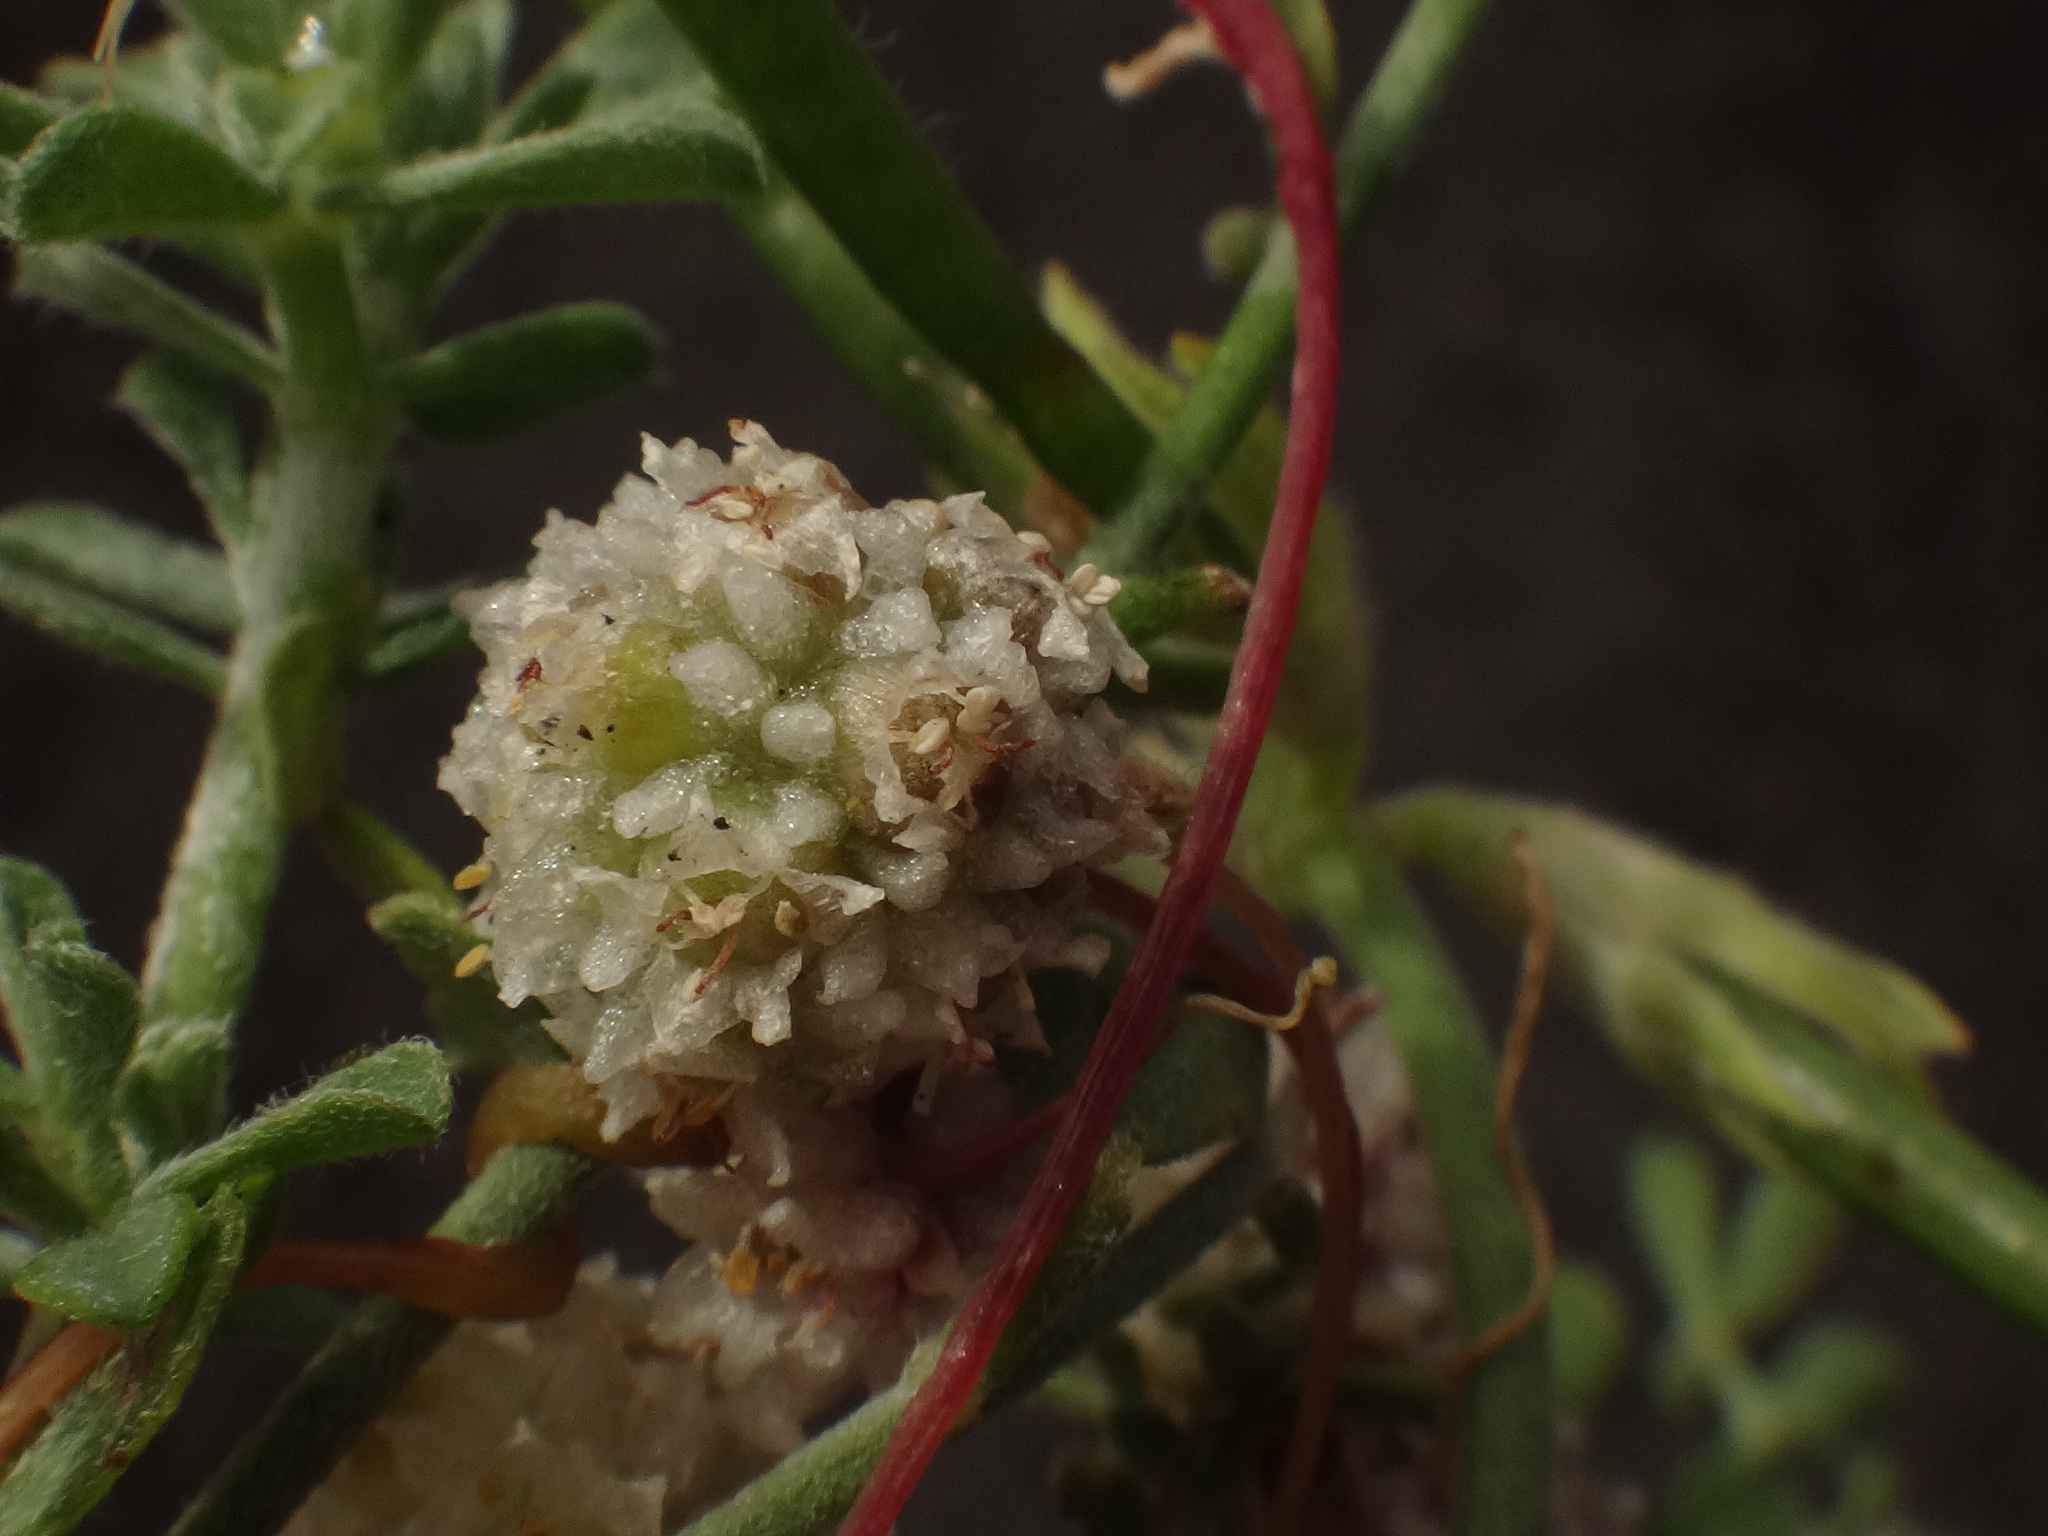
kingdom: Plantae
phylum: Tracheophyta
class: Magnoliopsida
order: Solanales
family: Convolvulaceae
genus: Cuscuta
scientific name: Cuscuta planiflora
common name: Small-seed alfalfa dodder
